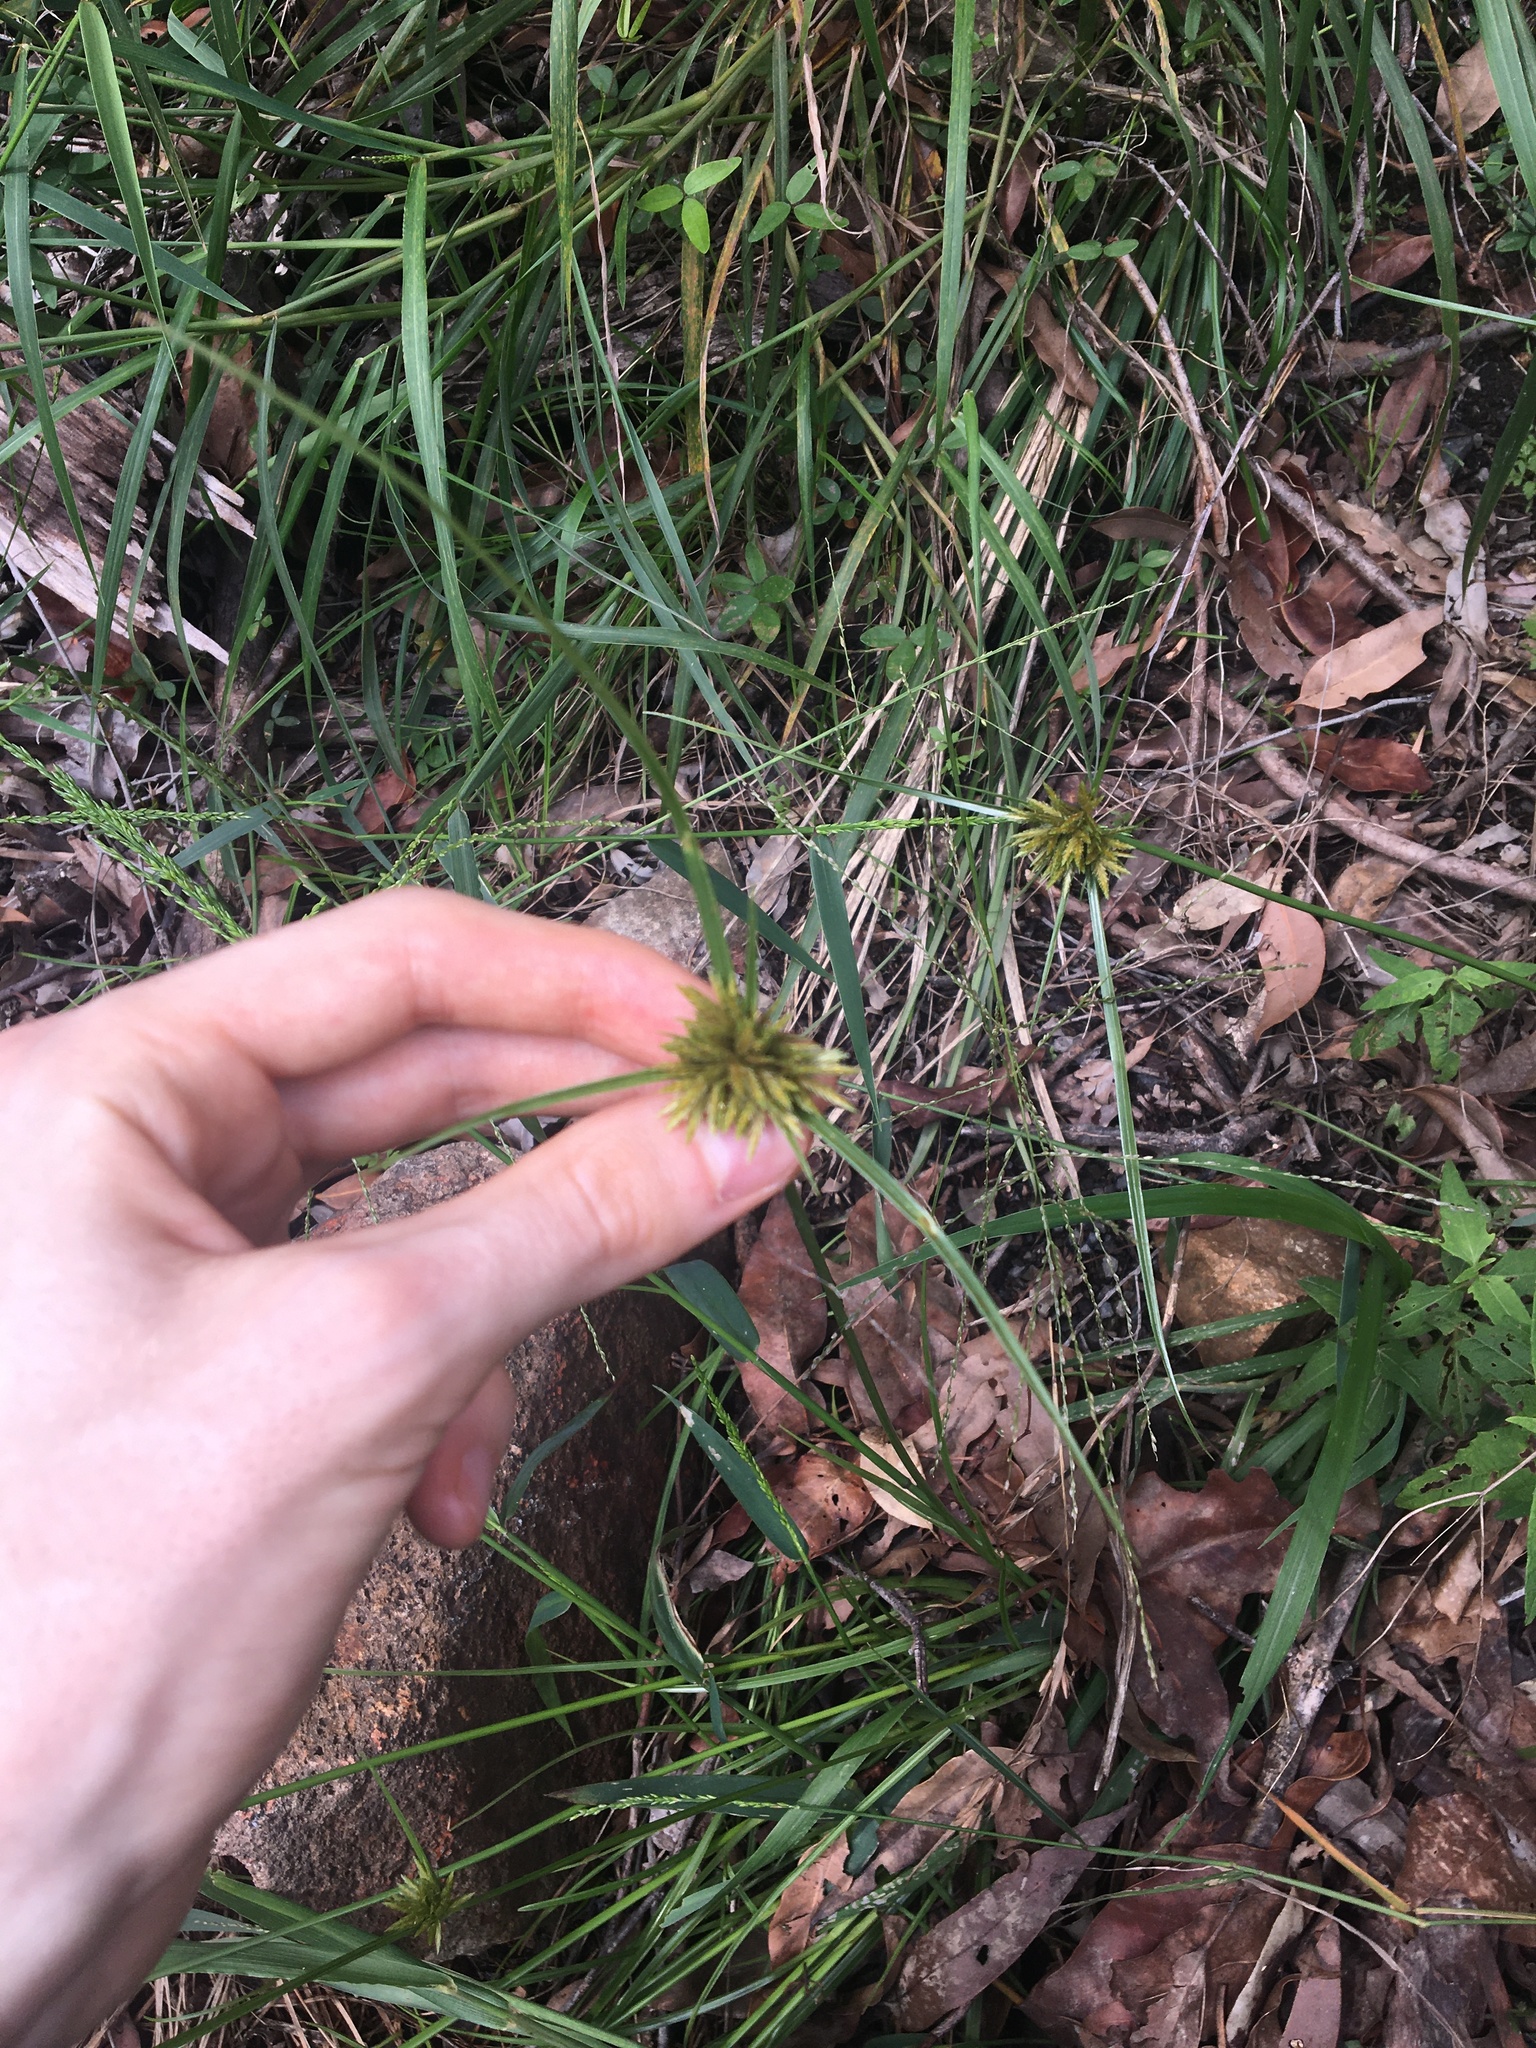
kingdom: Plantae
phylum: Tracheophyta
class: Liliopsida
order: Poales
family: Cyperaceae
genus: Cyperus
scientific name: Cyperus polystachyos
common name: Bunchy flat sedge
